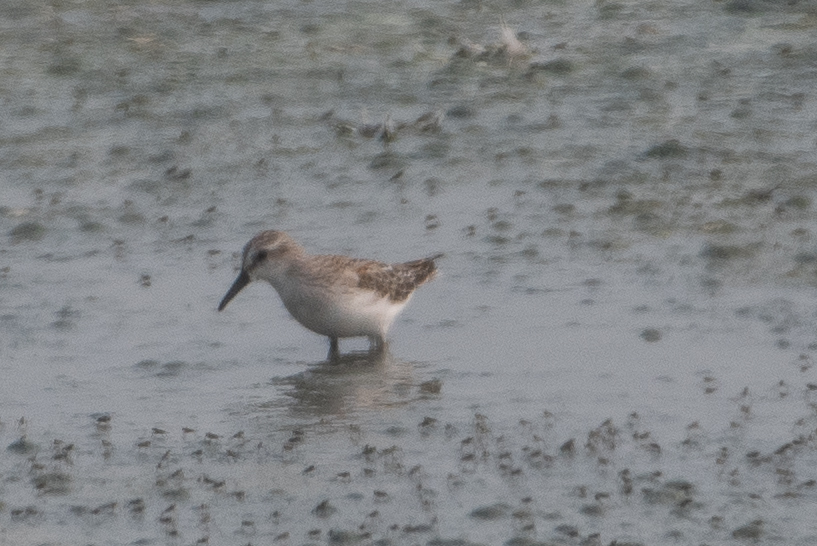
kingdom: Animalia
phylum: Chordata
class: Aves
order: Charadriiformes
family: Scolopacidae
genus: Calidris
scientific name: Calidris mauri
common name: Western sandpiper
